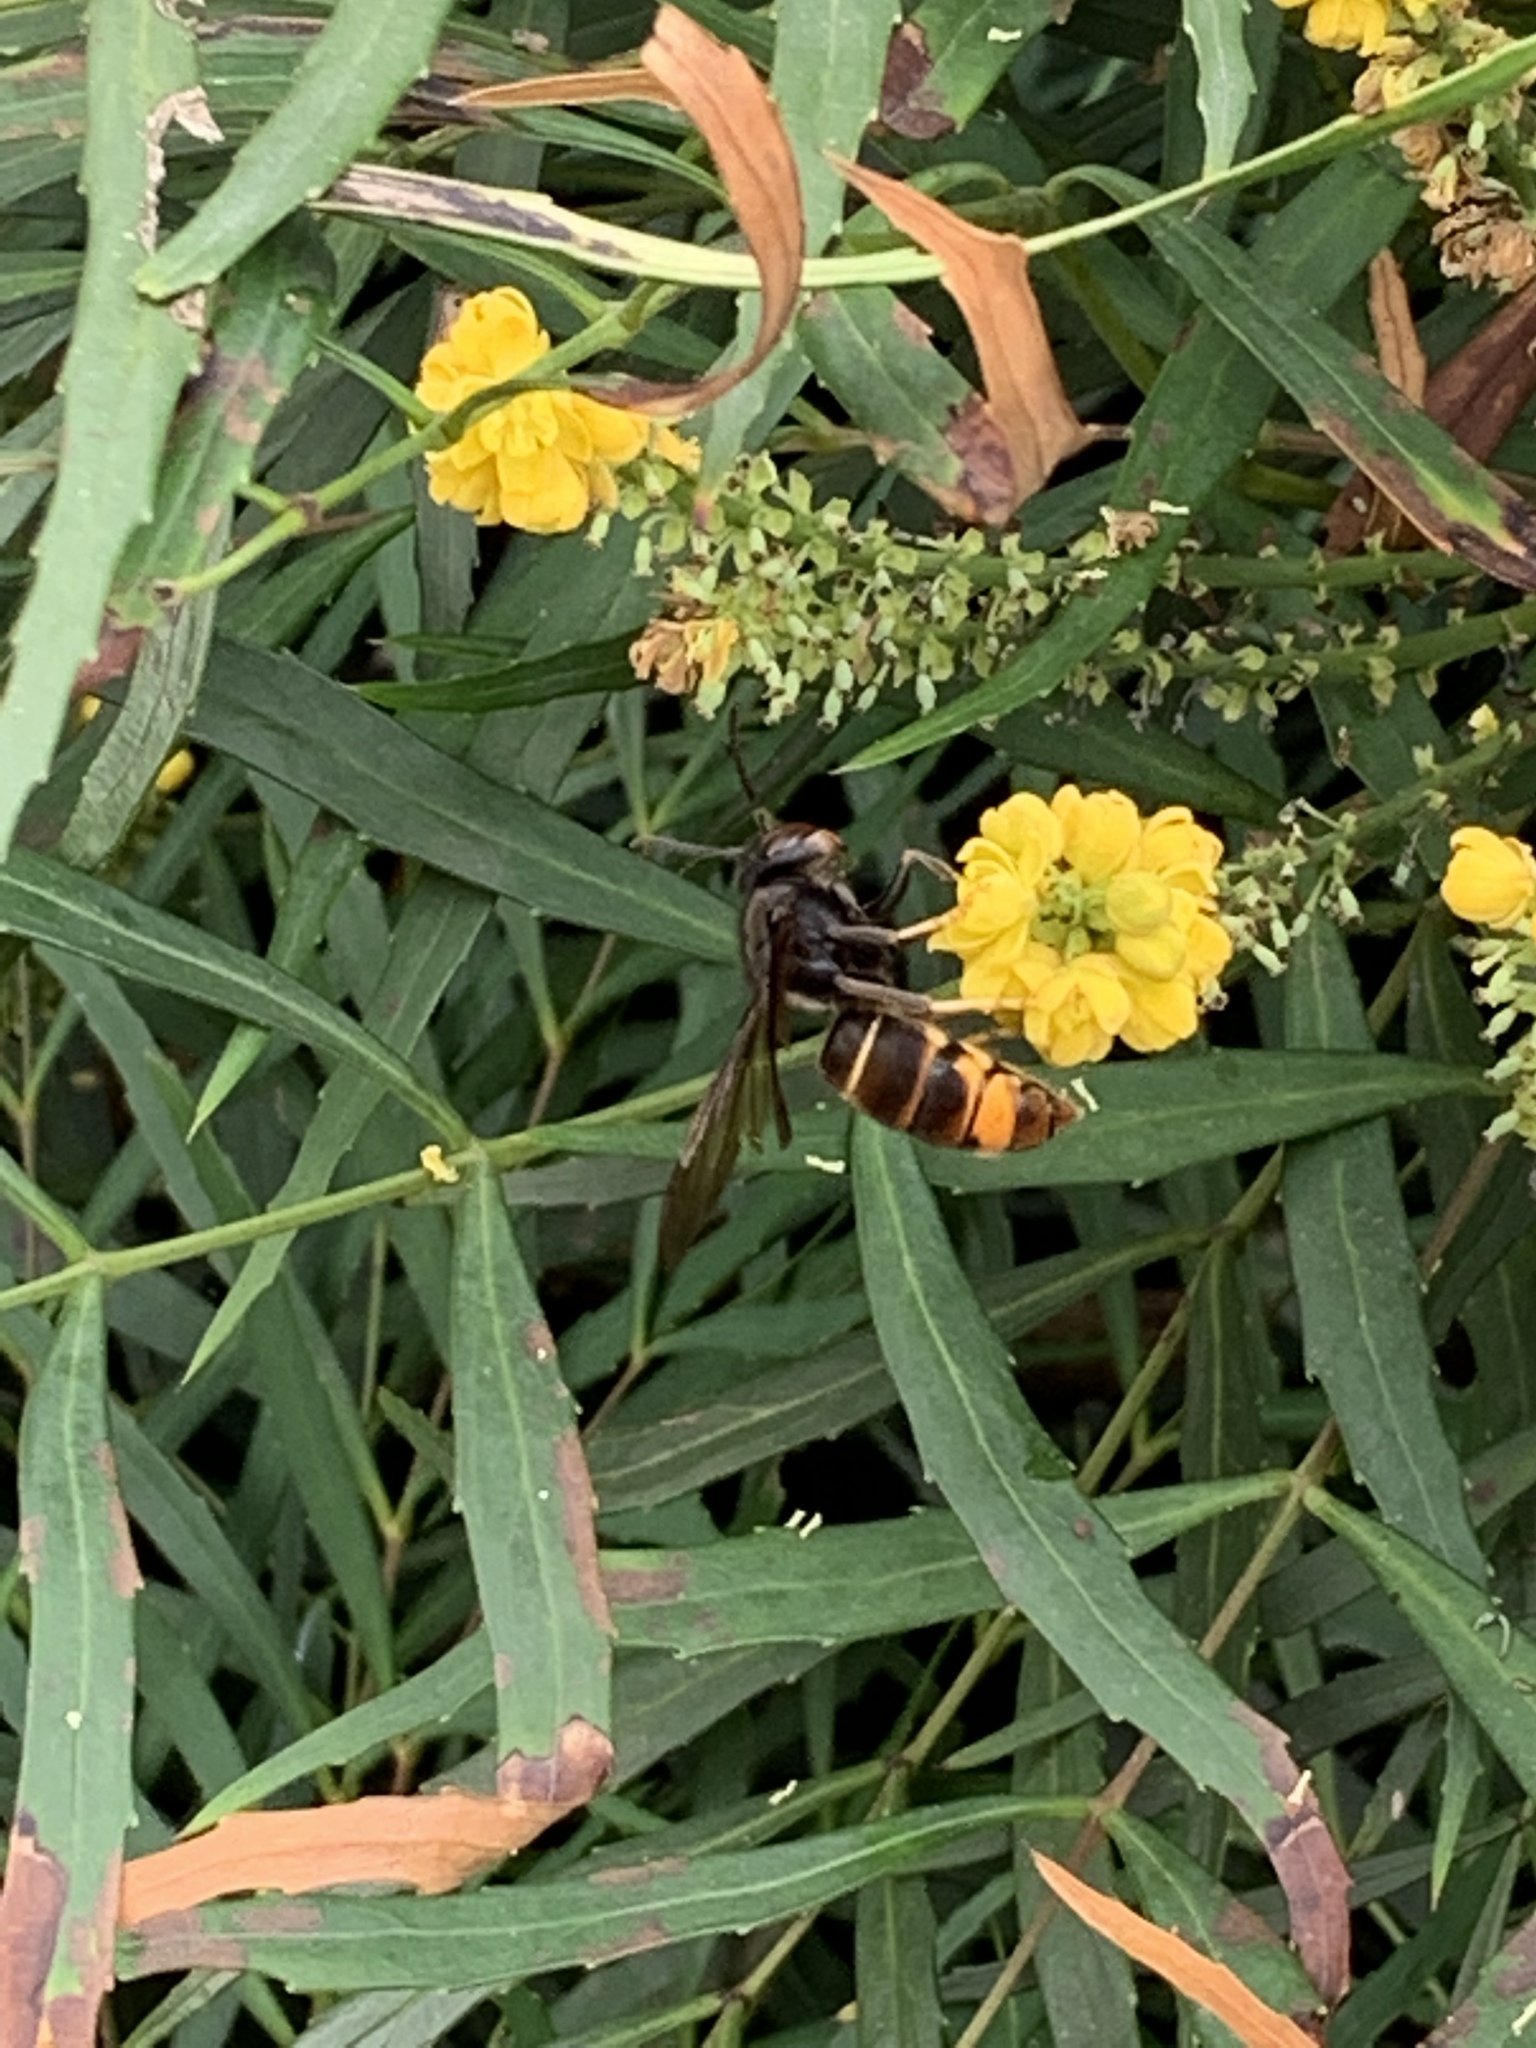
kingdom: Animalia
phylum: Arthropoda
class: Insecta
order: Hymenoptera
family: Vespidae
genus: Vespa
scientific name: Vespa velutina
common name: Asian hornet
